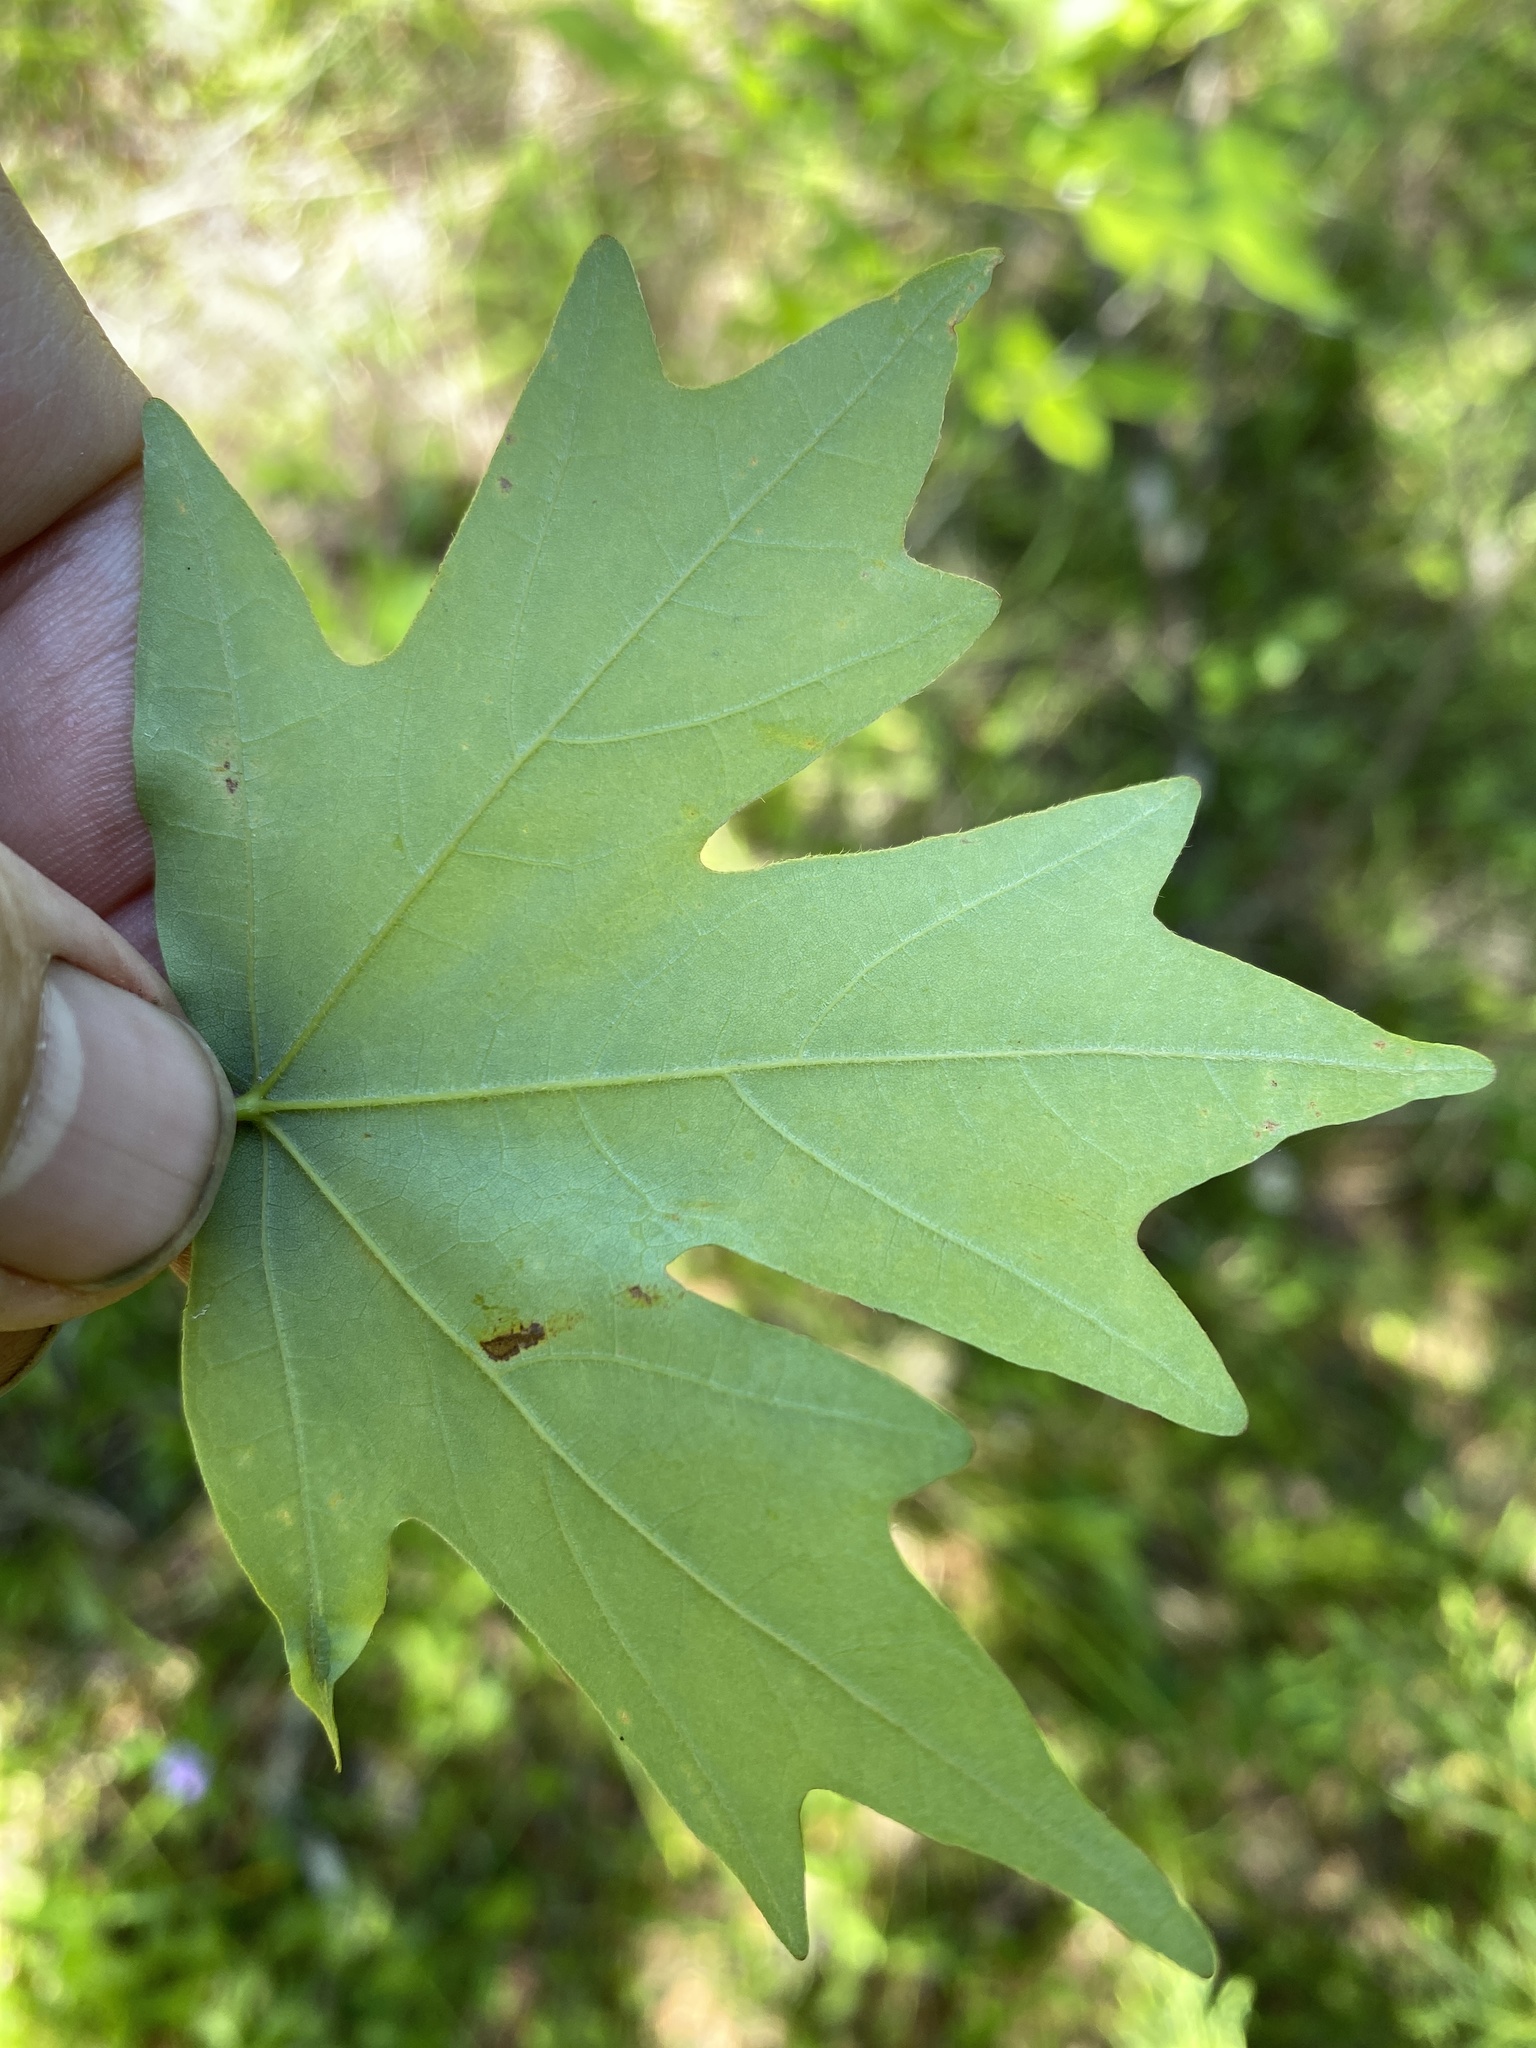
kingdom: Plantae
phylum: Tracheophyta
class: Magnoliopsida
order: Sapindales
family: Sapindaceae
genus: Acer
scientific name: Acer floridanum
